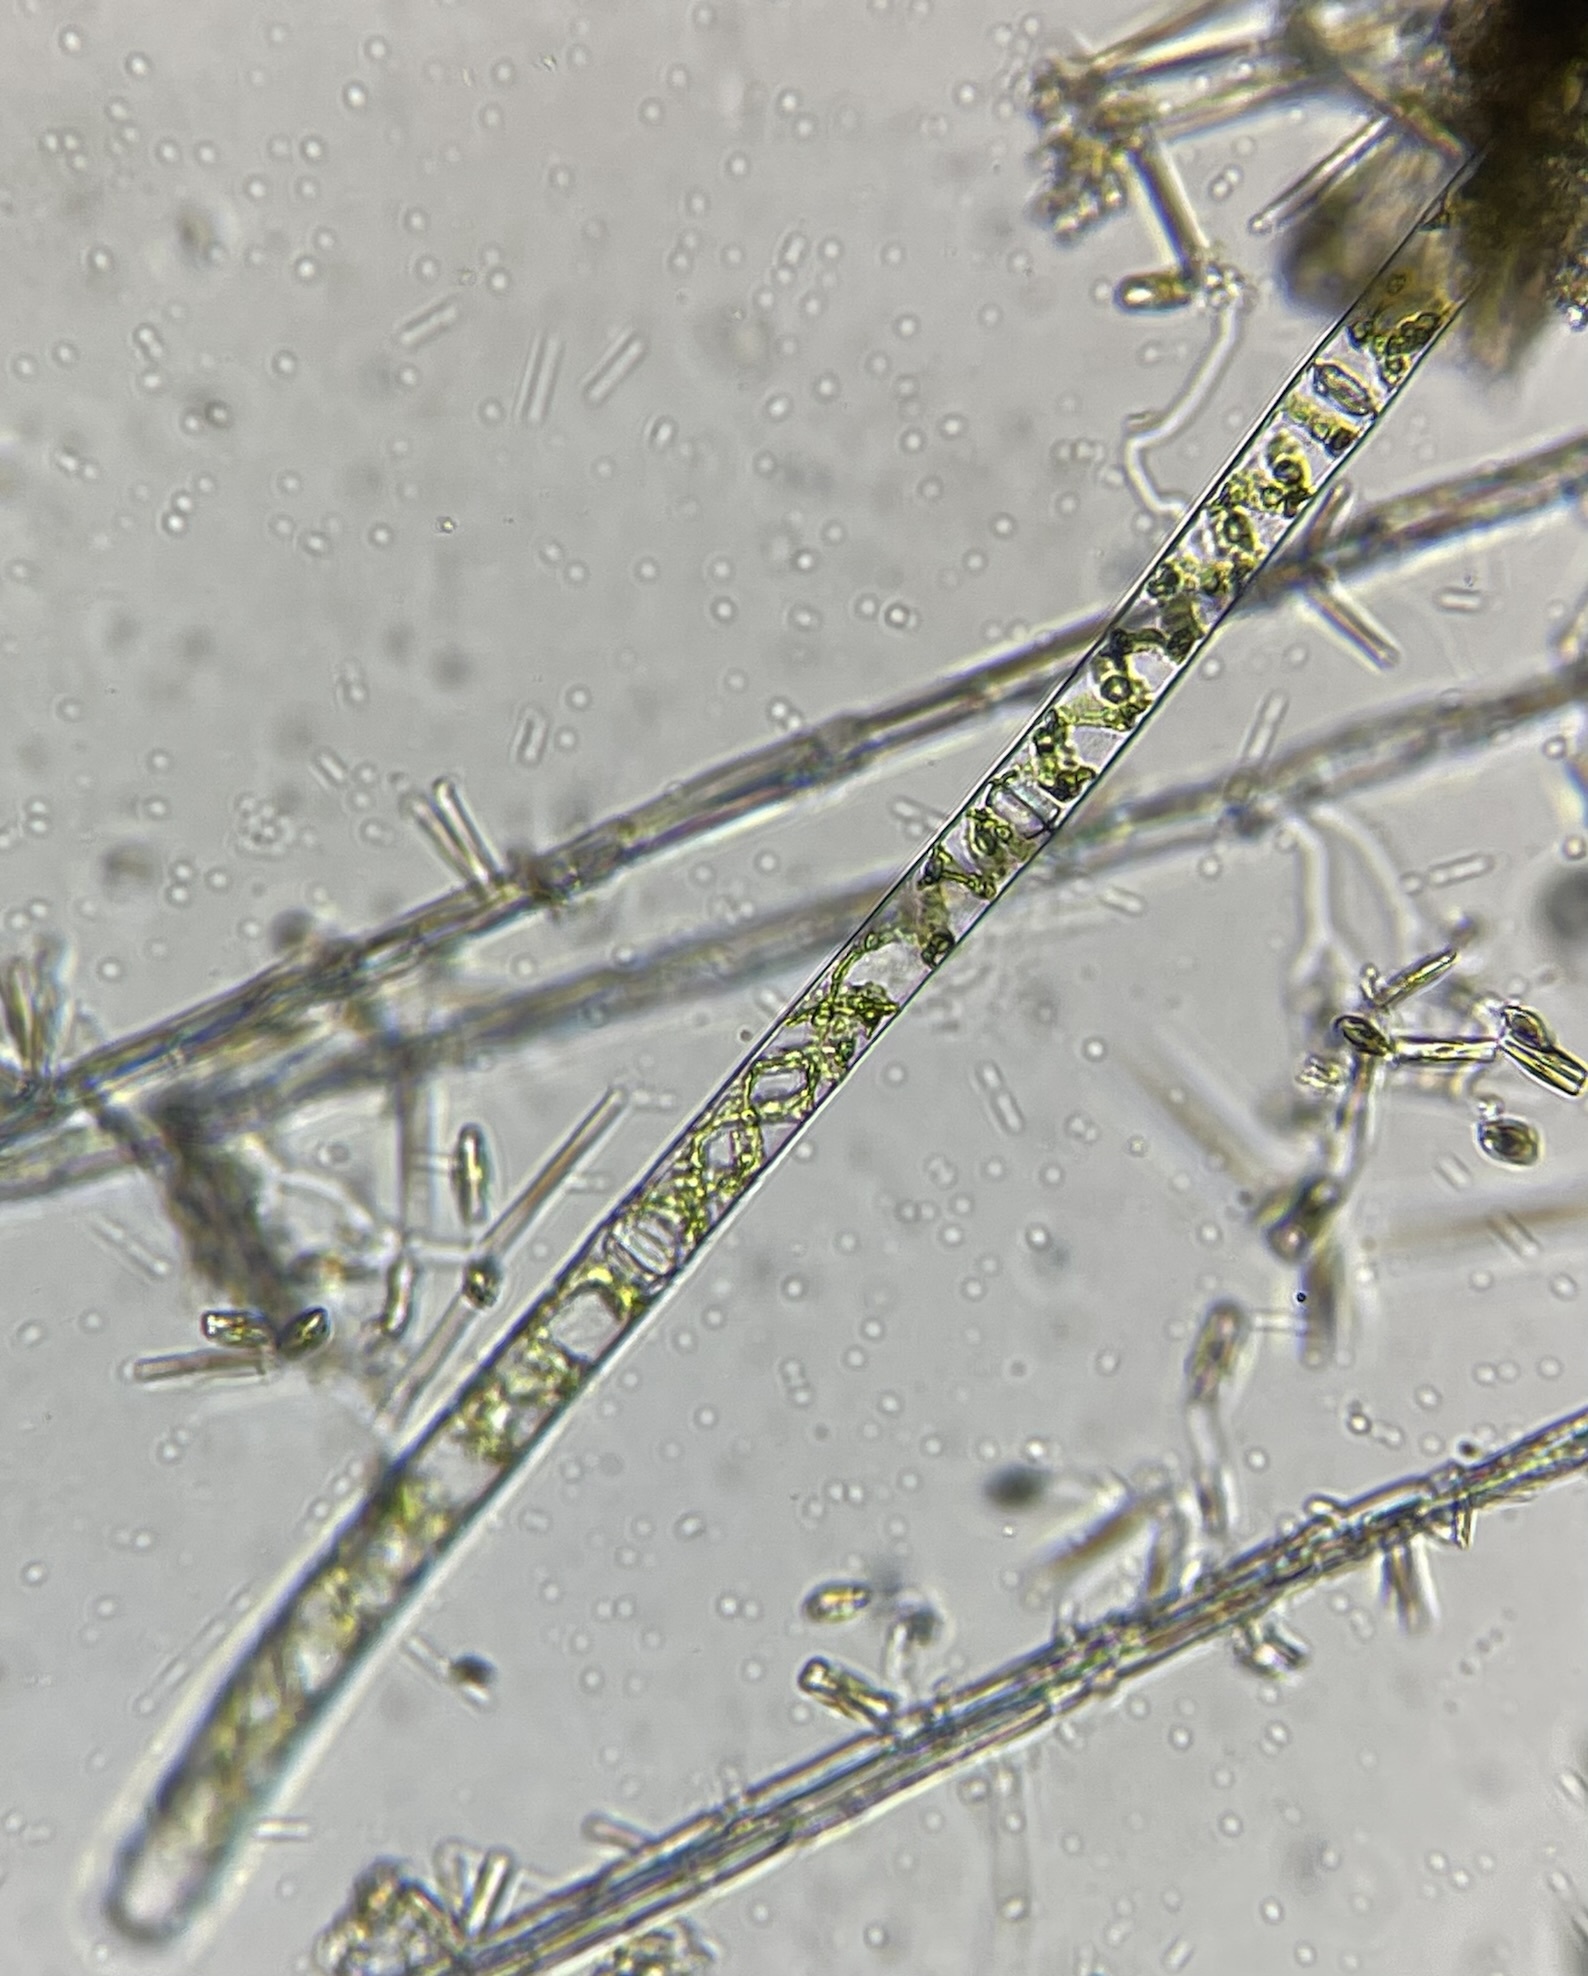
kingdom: Plantae
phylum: Charophyta
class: Zygnematophyceae
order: Zygnematales
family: Zygnemataceae
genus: Spirogyra
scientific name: Spirogyra
